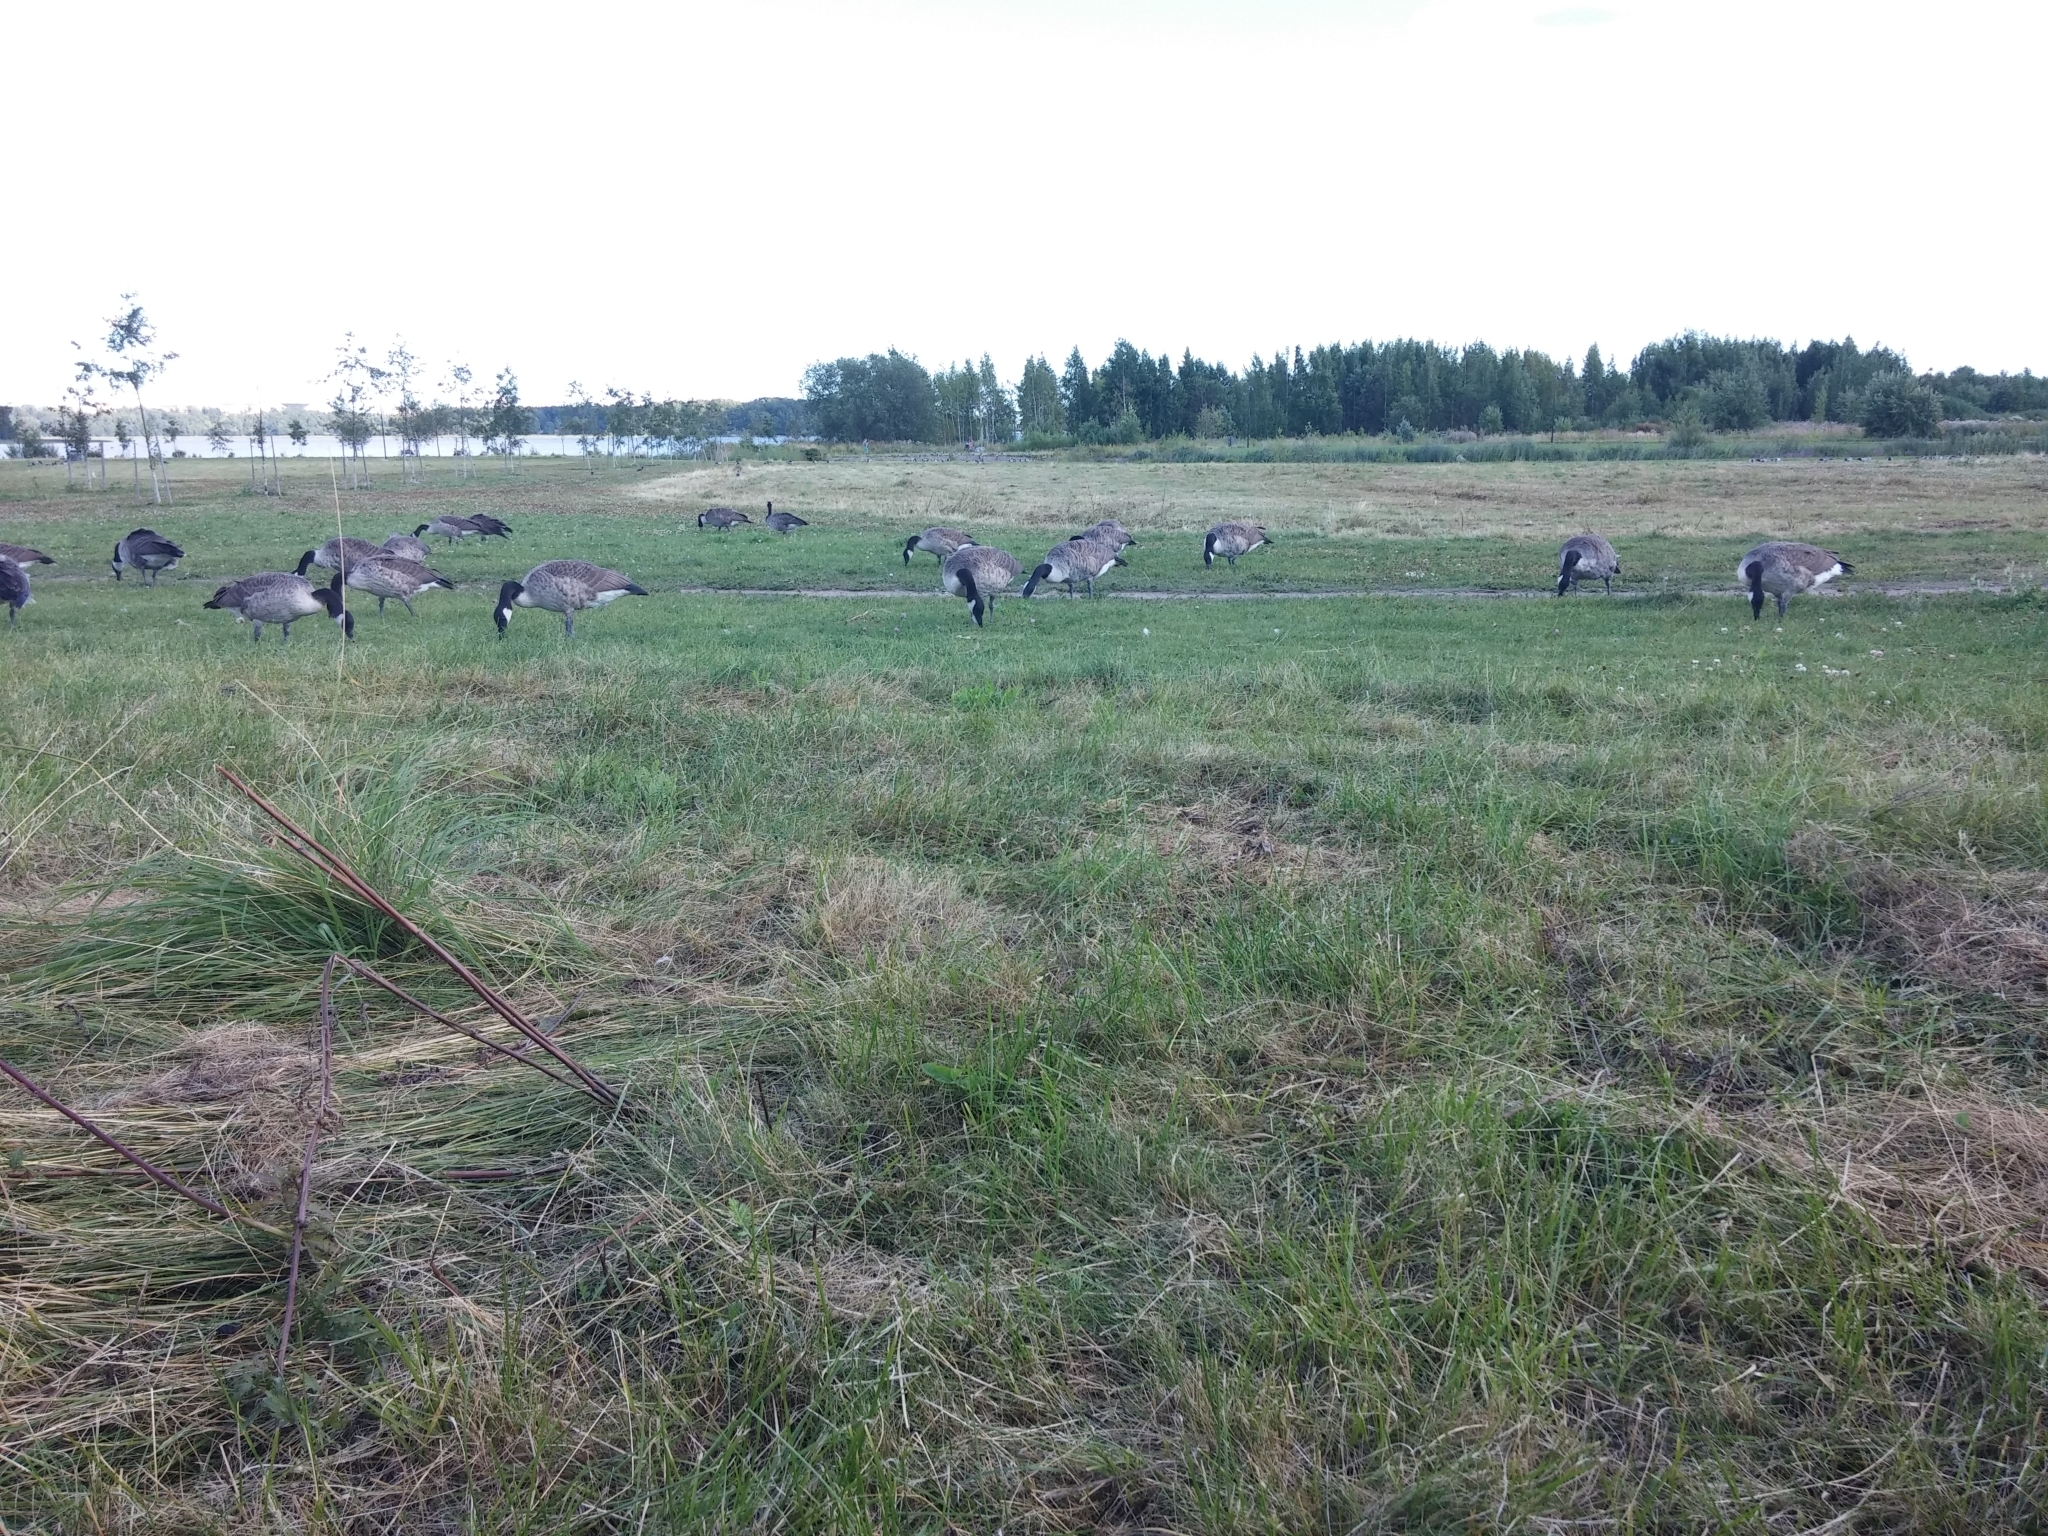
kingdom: Animalia
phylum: Chordata
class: Aves
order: Anseriformes
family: Anatidae
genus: Branta
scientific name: Branta canadensis
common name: Canada goose
